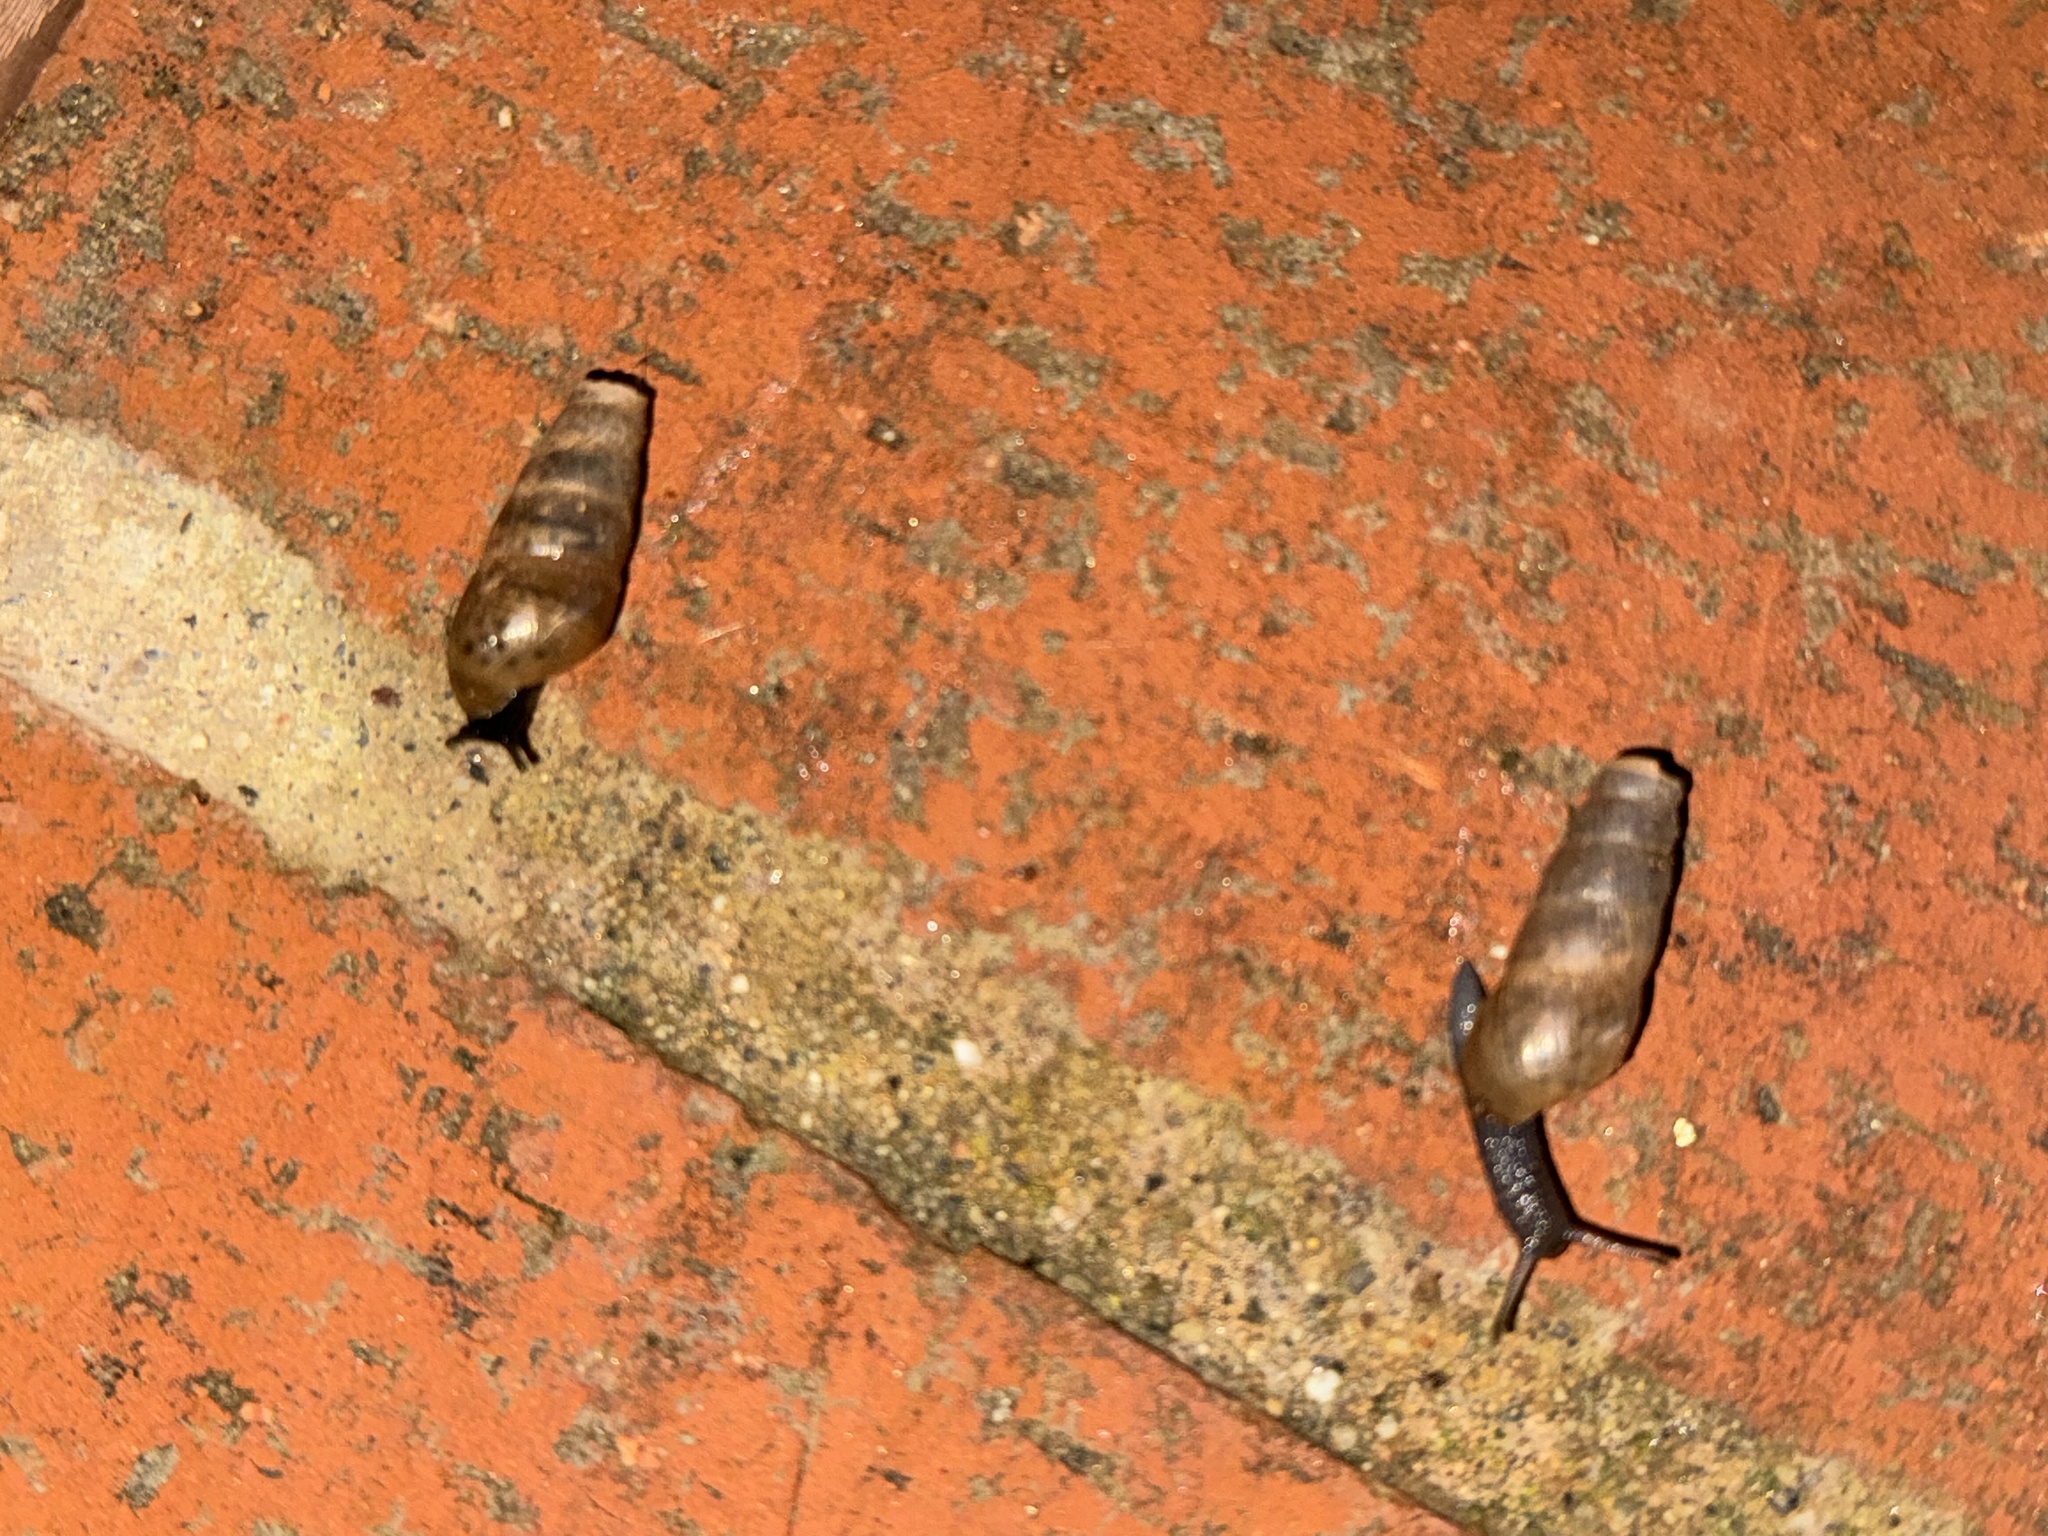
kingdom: Animalia
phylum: Mollusca
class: Gastropoda
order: Stylommatophora
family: Achatinidae
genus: Rumina
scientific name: Rumina decollata
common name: Decollate snail
